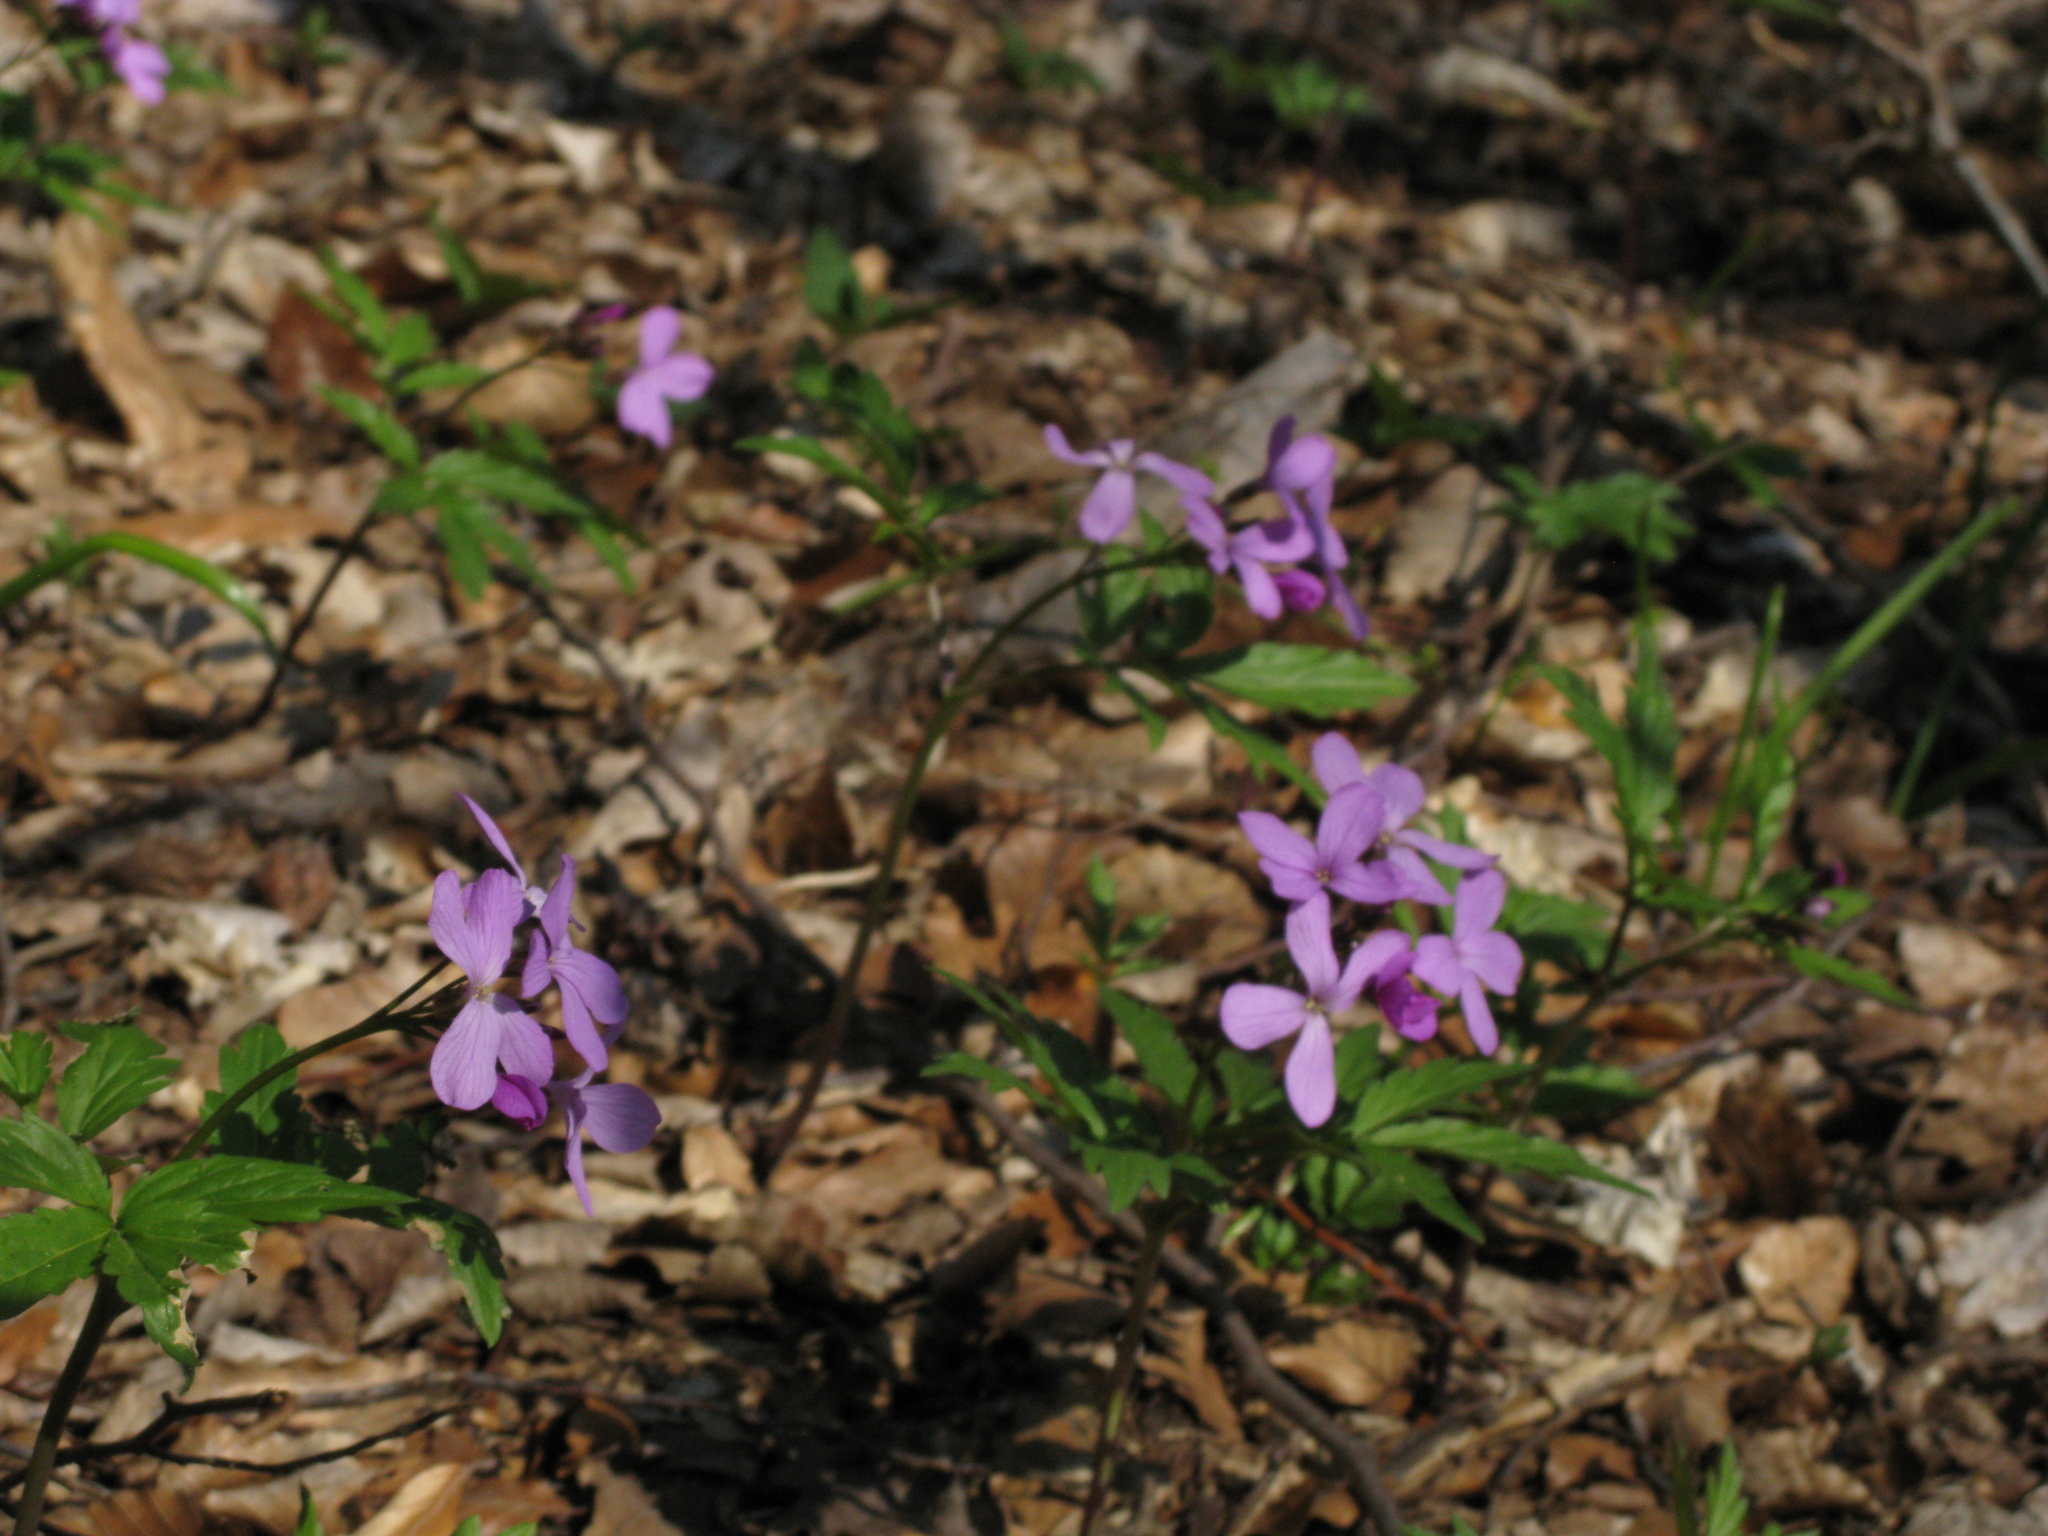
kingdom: Plantae
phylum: Tracheophyta
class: Magnoliopsida
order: Brassicales
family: Brassicaceae
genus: Cardamine
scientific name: Cardamine quinquefolia
